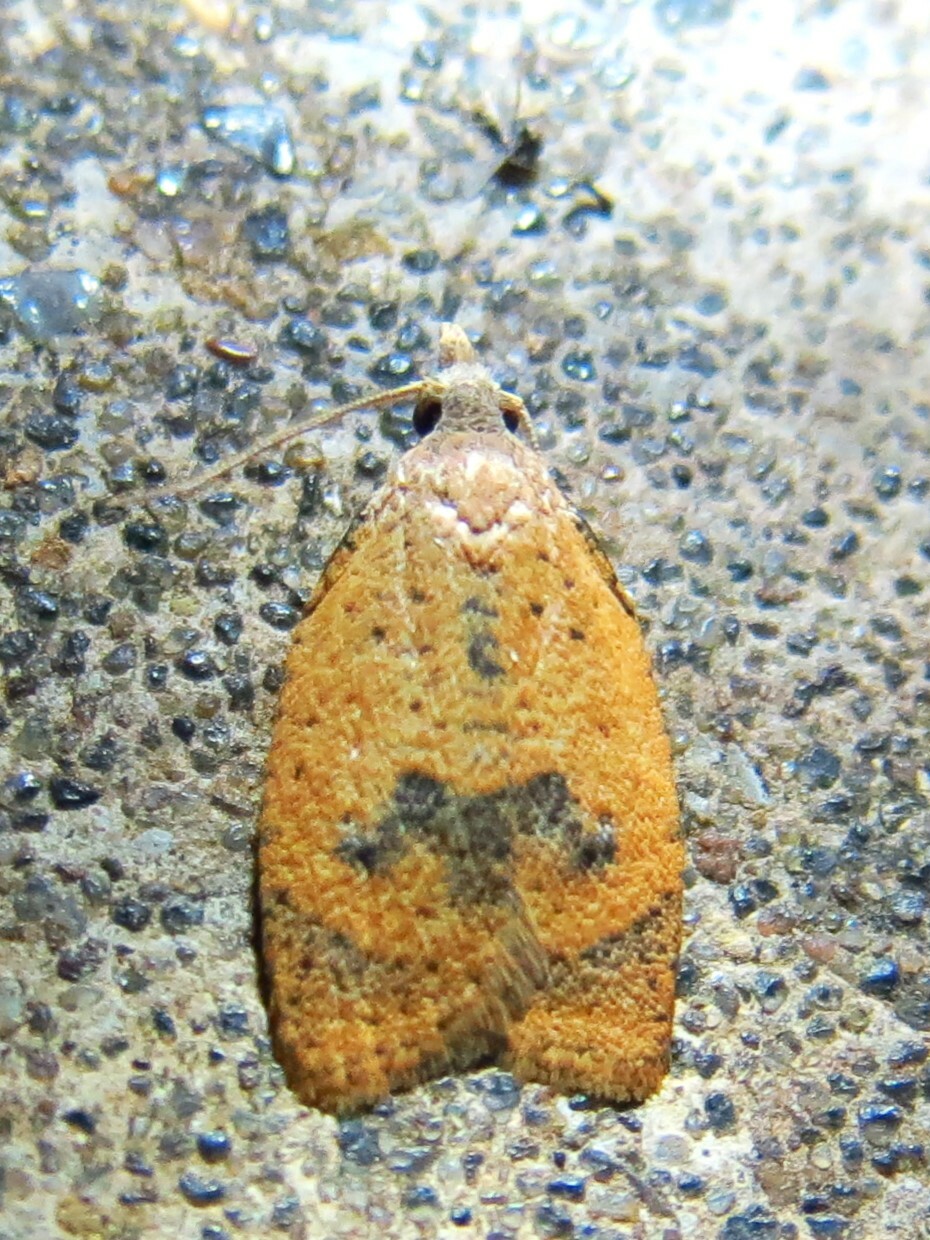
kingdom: Animalia
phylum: Arthropoda
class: Insecta
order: Lepidoptera
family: Tortricidae
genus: Sparganothoides
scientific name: Sparganothoides lentiginosana
